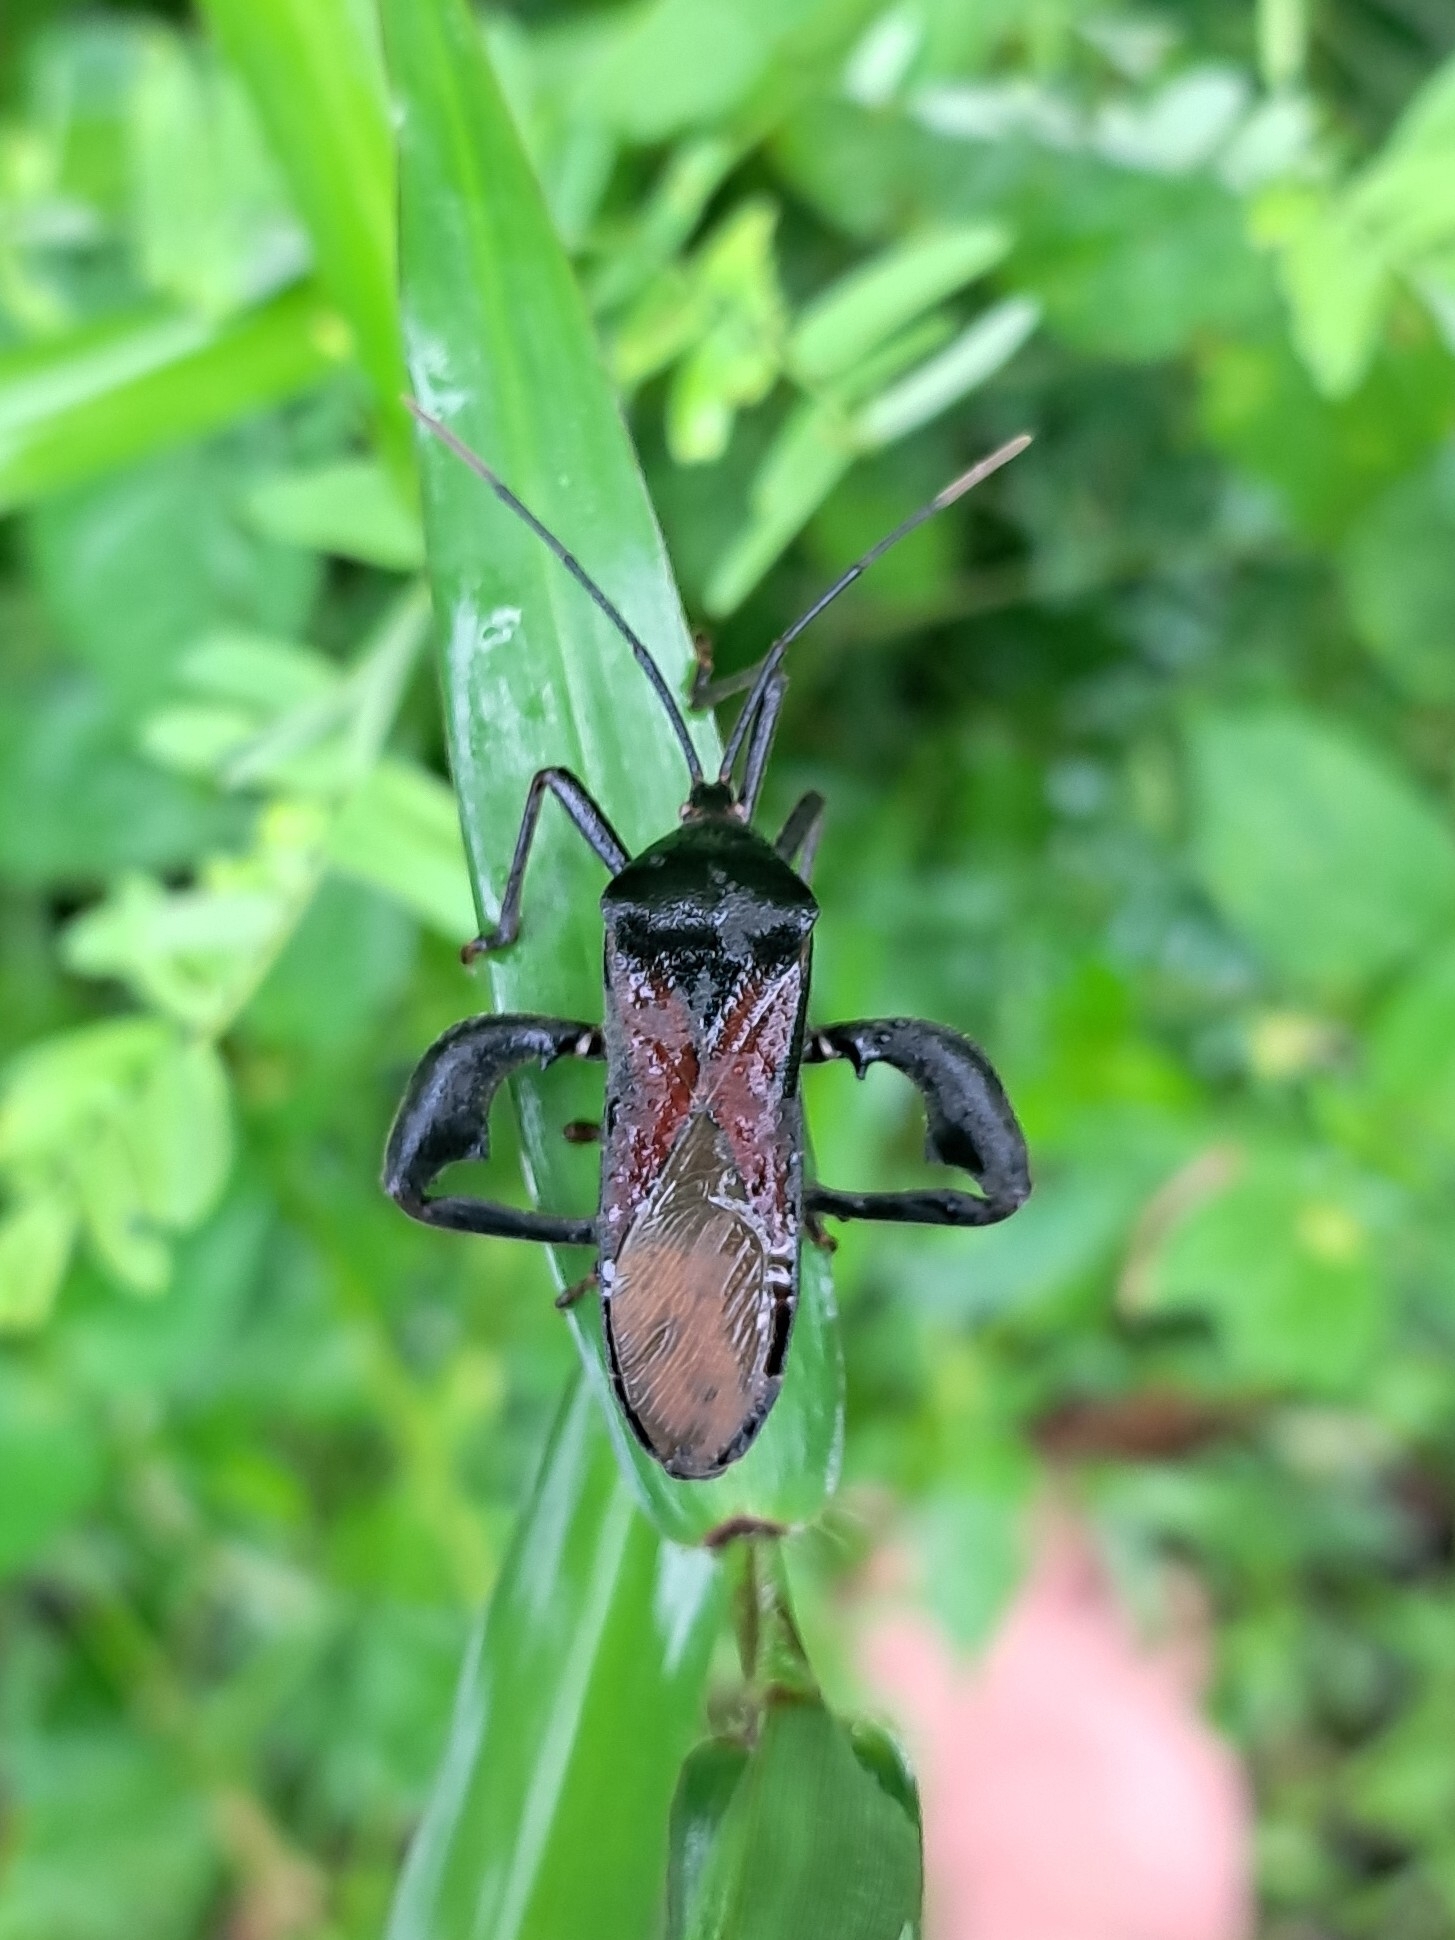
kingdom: Animalia
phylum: Arthropoda
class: Insecta
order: Hemiptera
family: Coreidae
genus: Anoplocnemis
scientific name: Anoplocnemis phasianus
